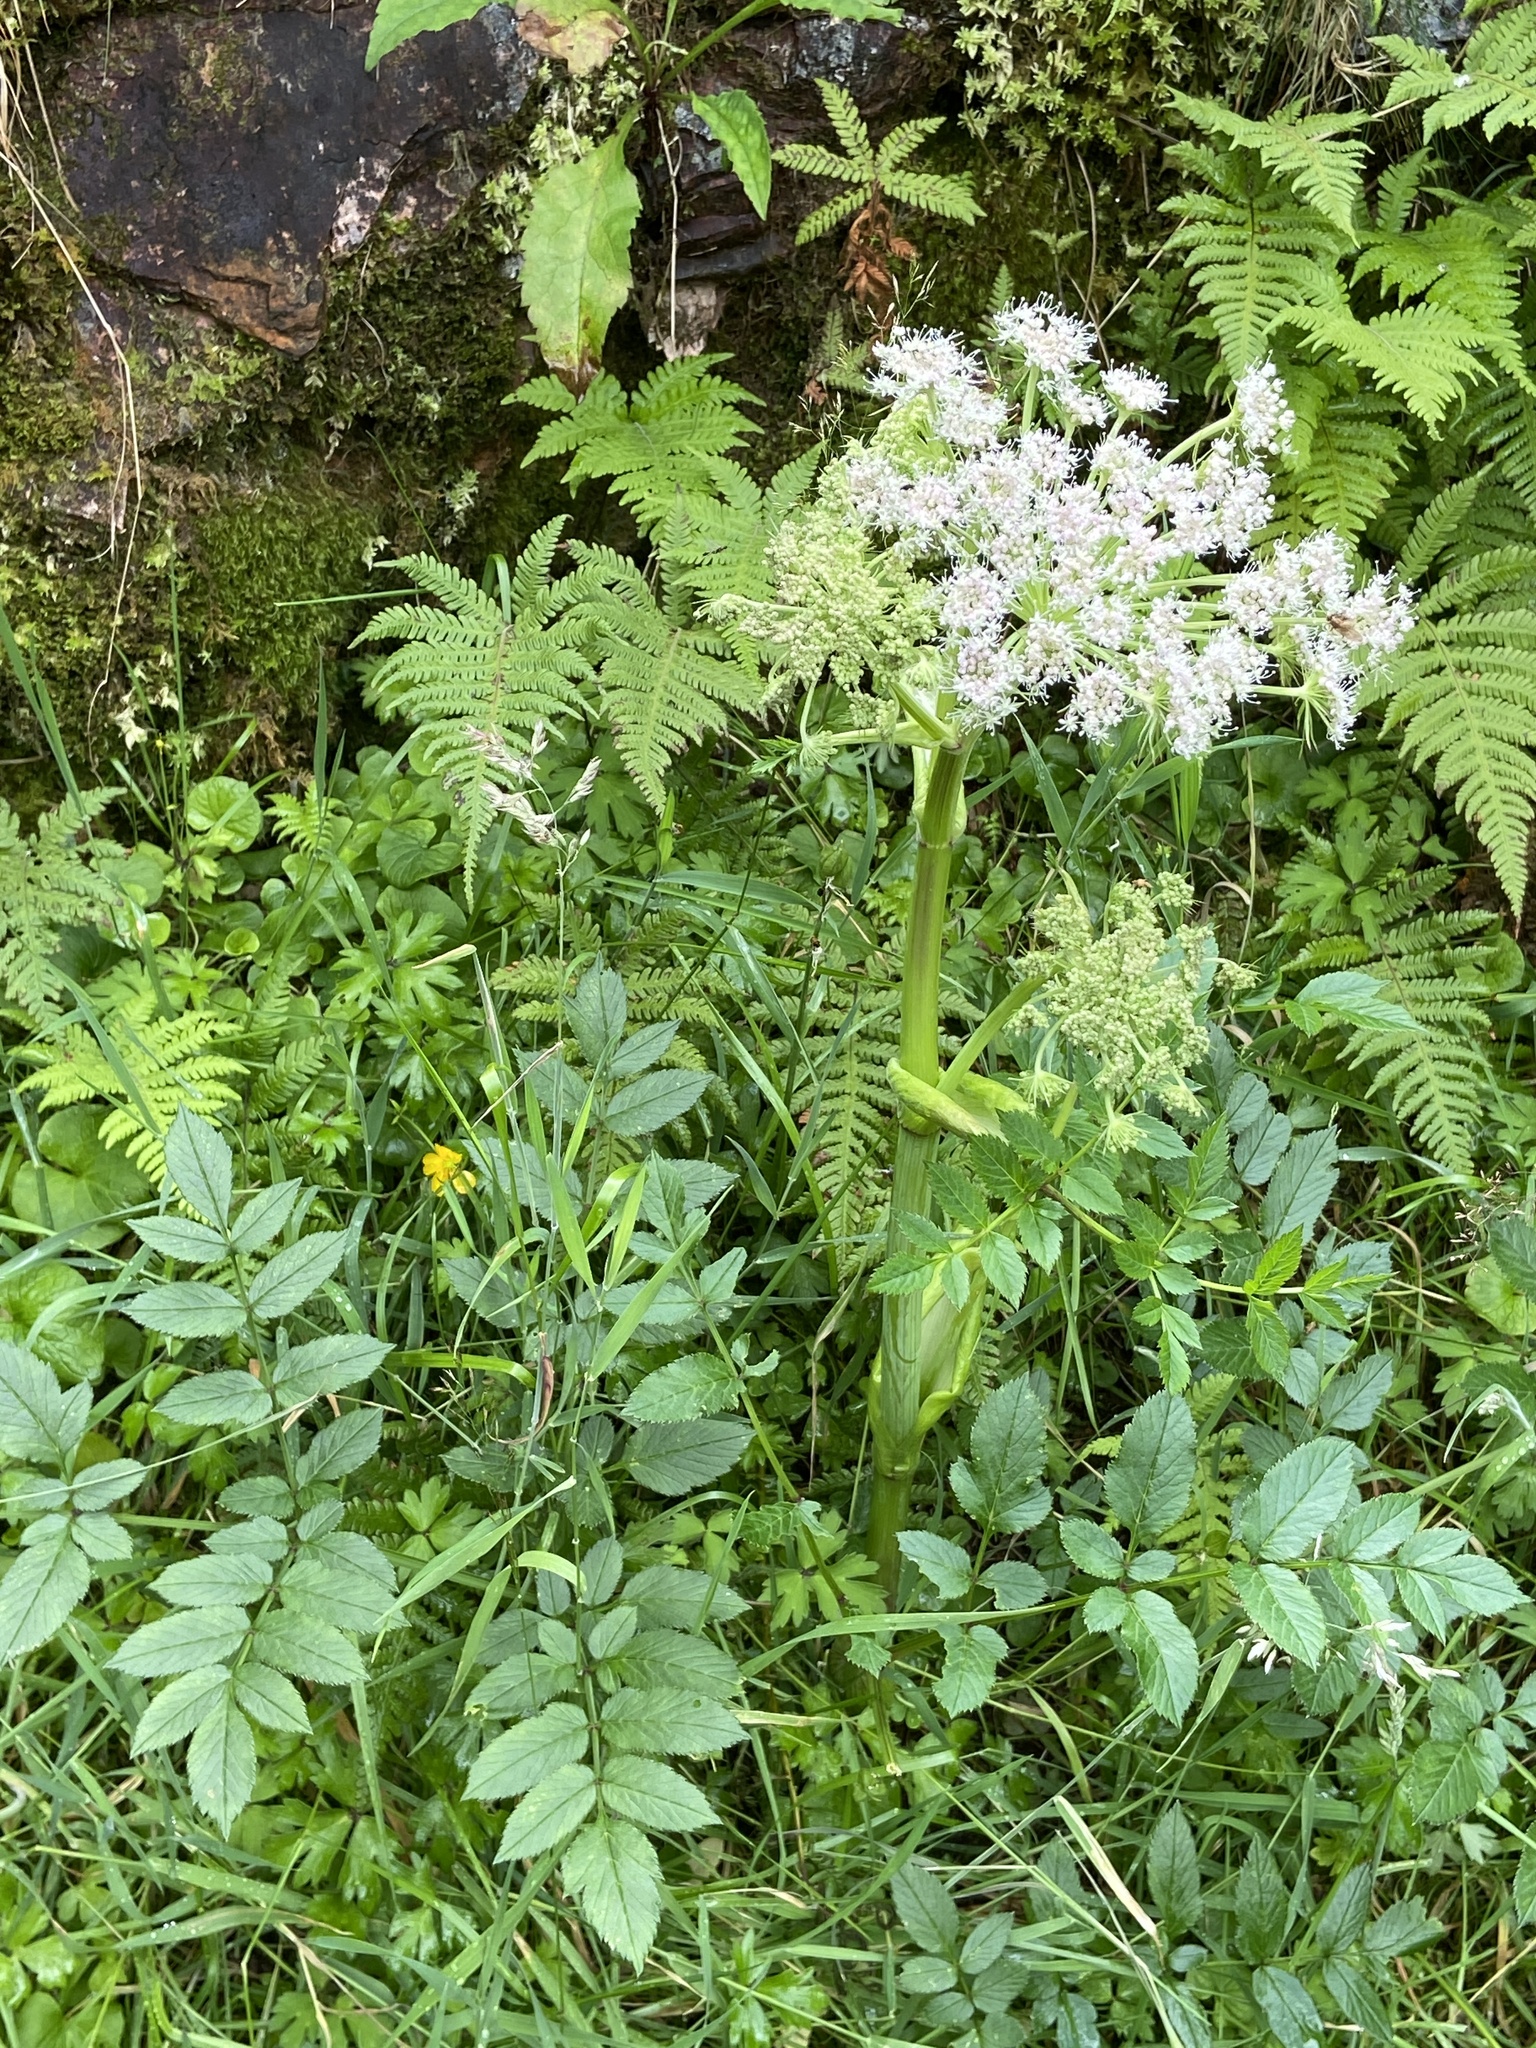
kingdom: Plantae
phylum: Tracheophyta
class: Magnoliopsida
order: Apiales
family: Apiaceae
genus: Angelica
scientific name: Angelica sylvestris
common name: Wild angelica
